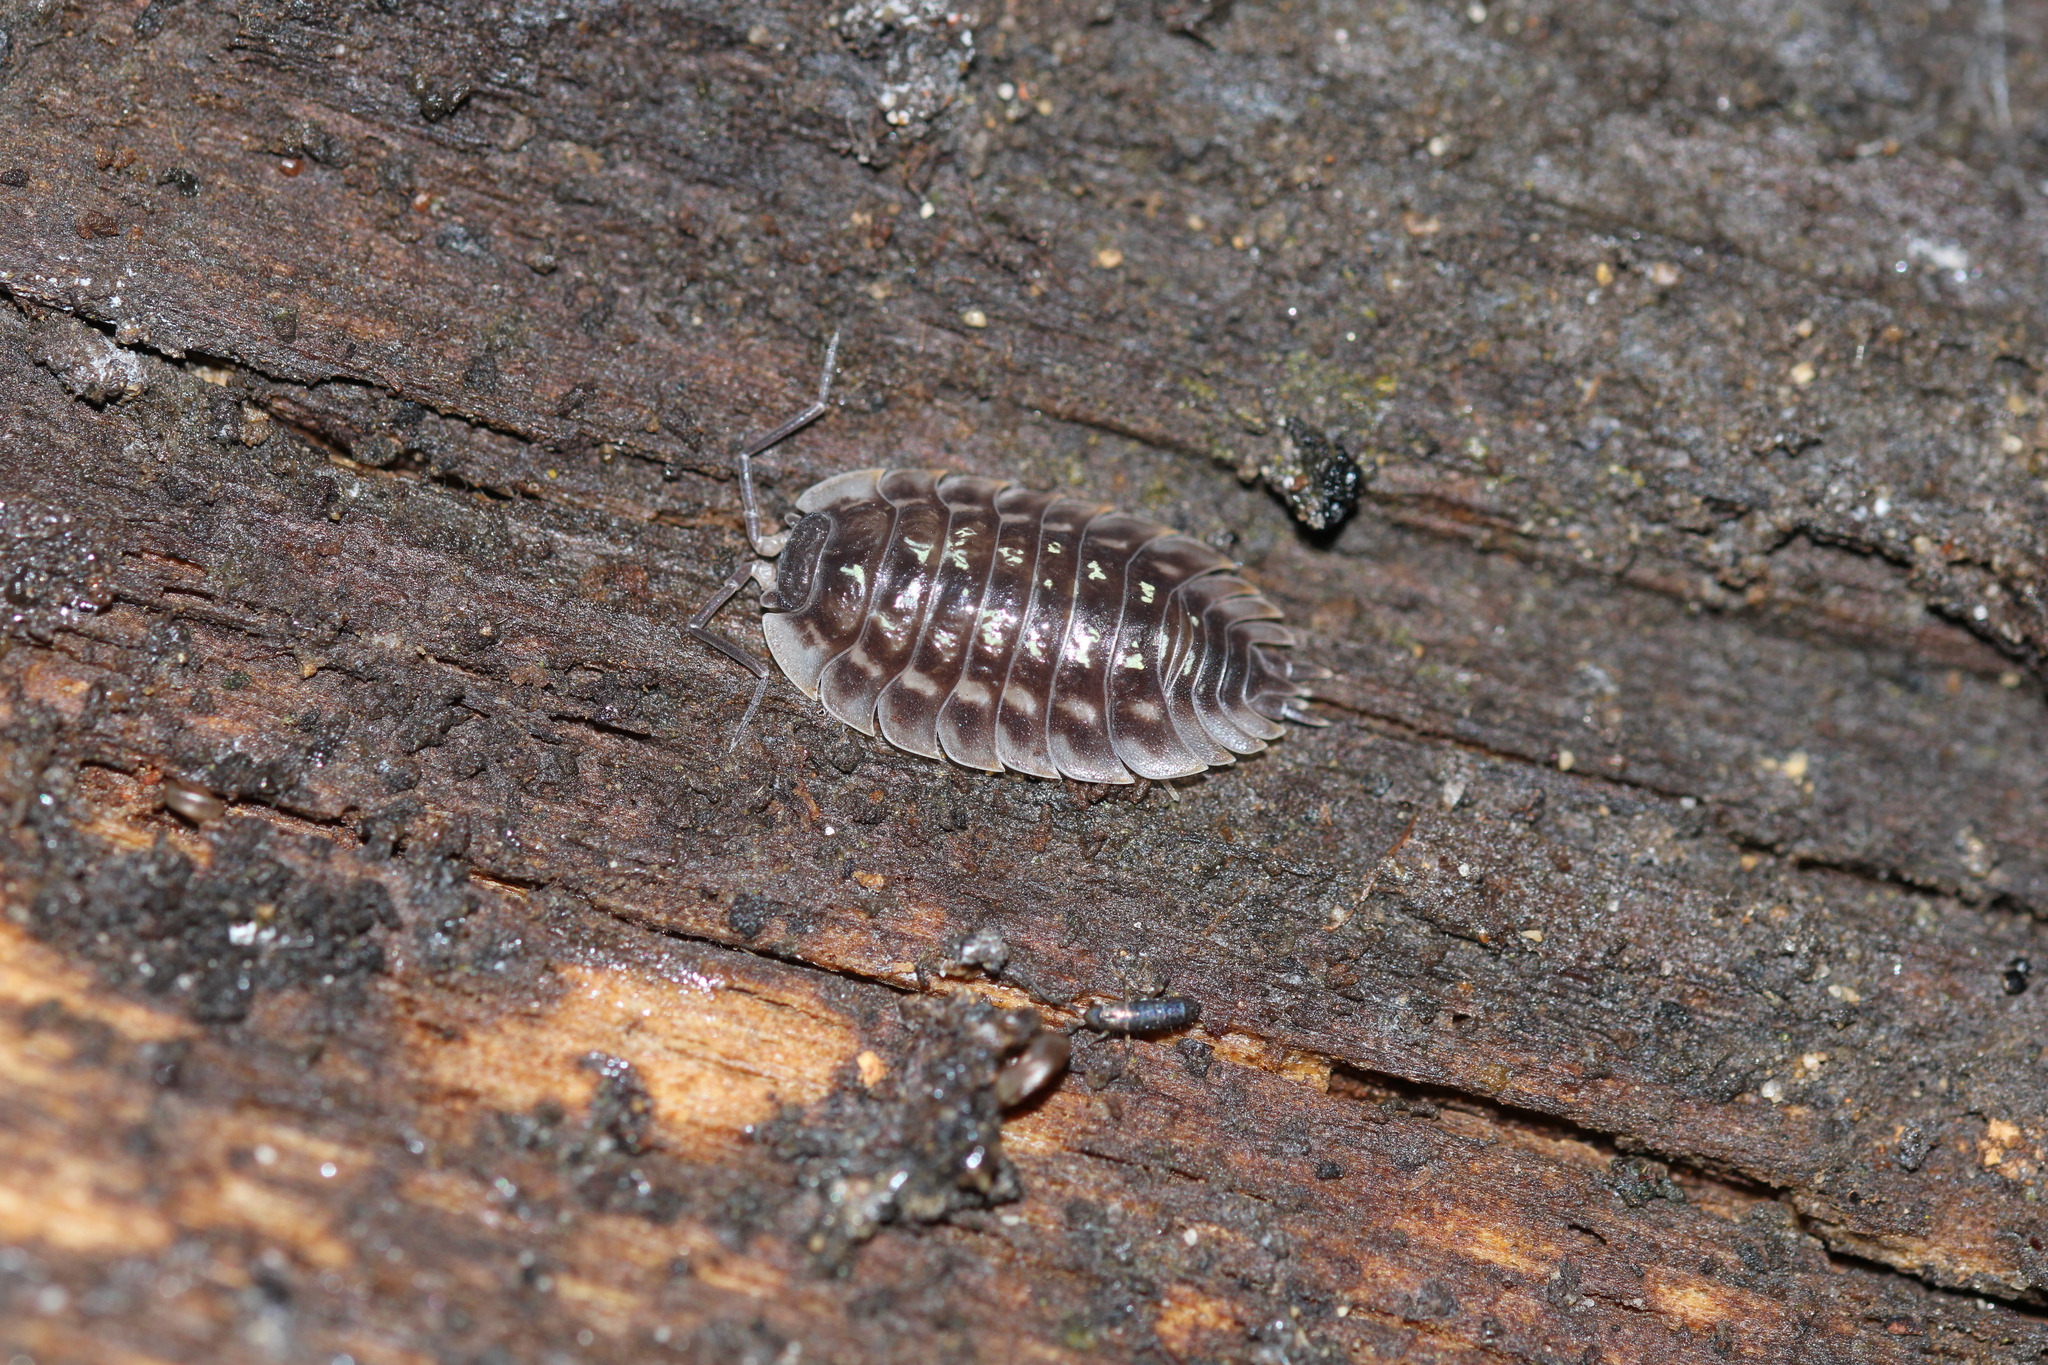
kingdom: Animalia
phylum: Arthropoda
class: Malacostraca
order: Isopoda
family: Oniscidae
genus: Oniscus
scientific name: Oniscus asellus
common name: Common shiny woodlouse
